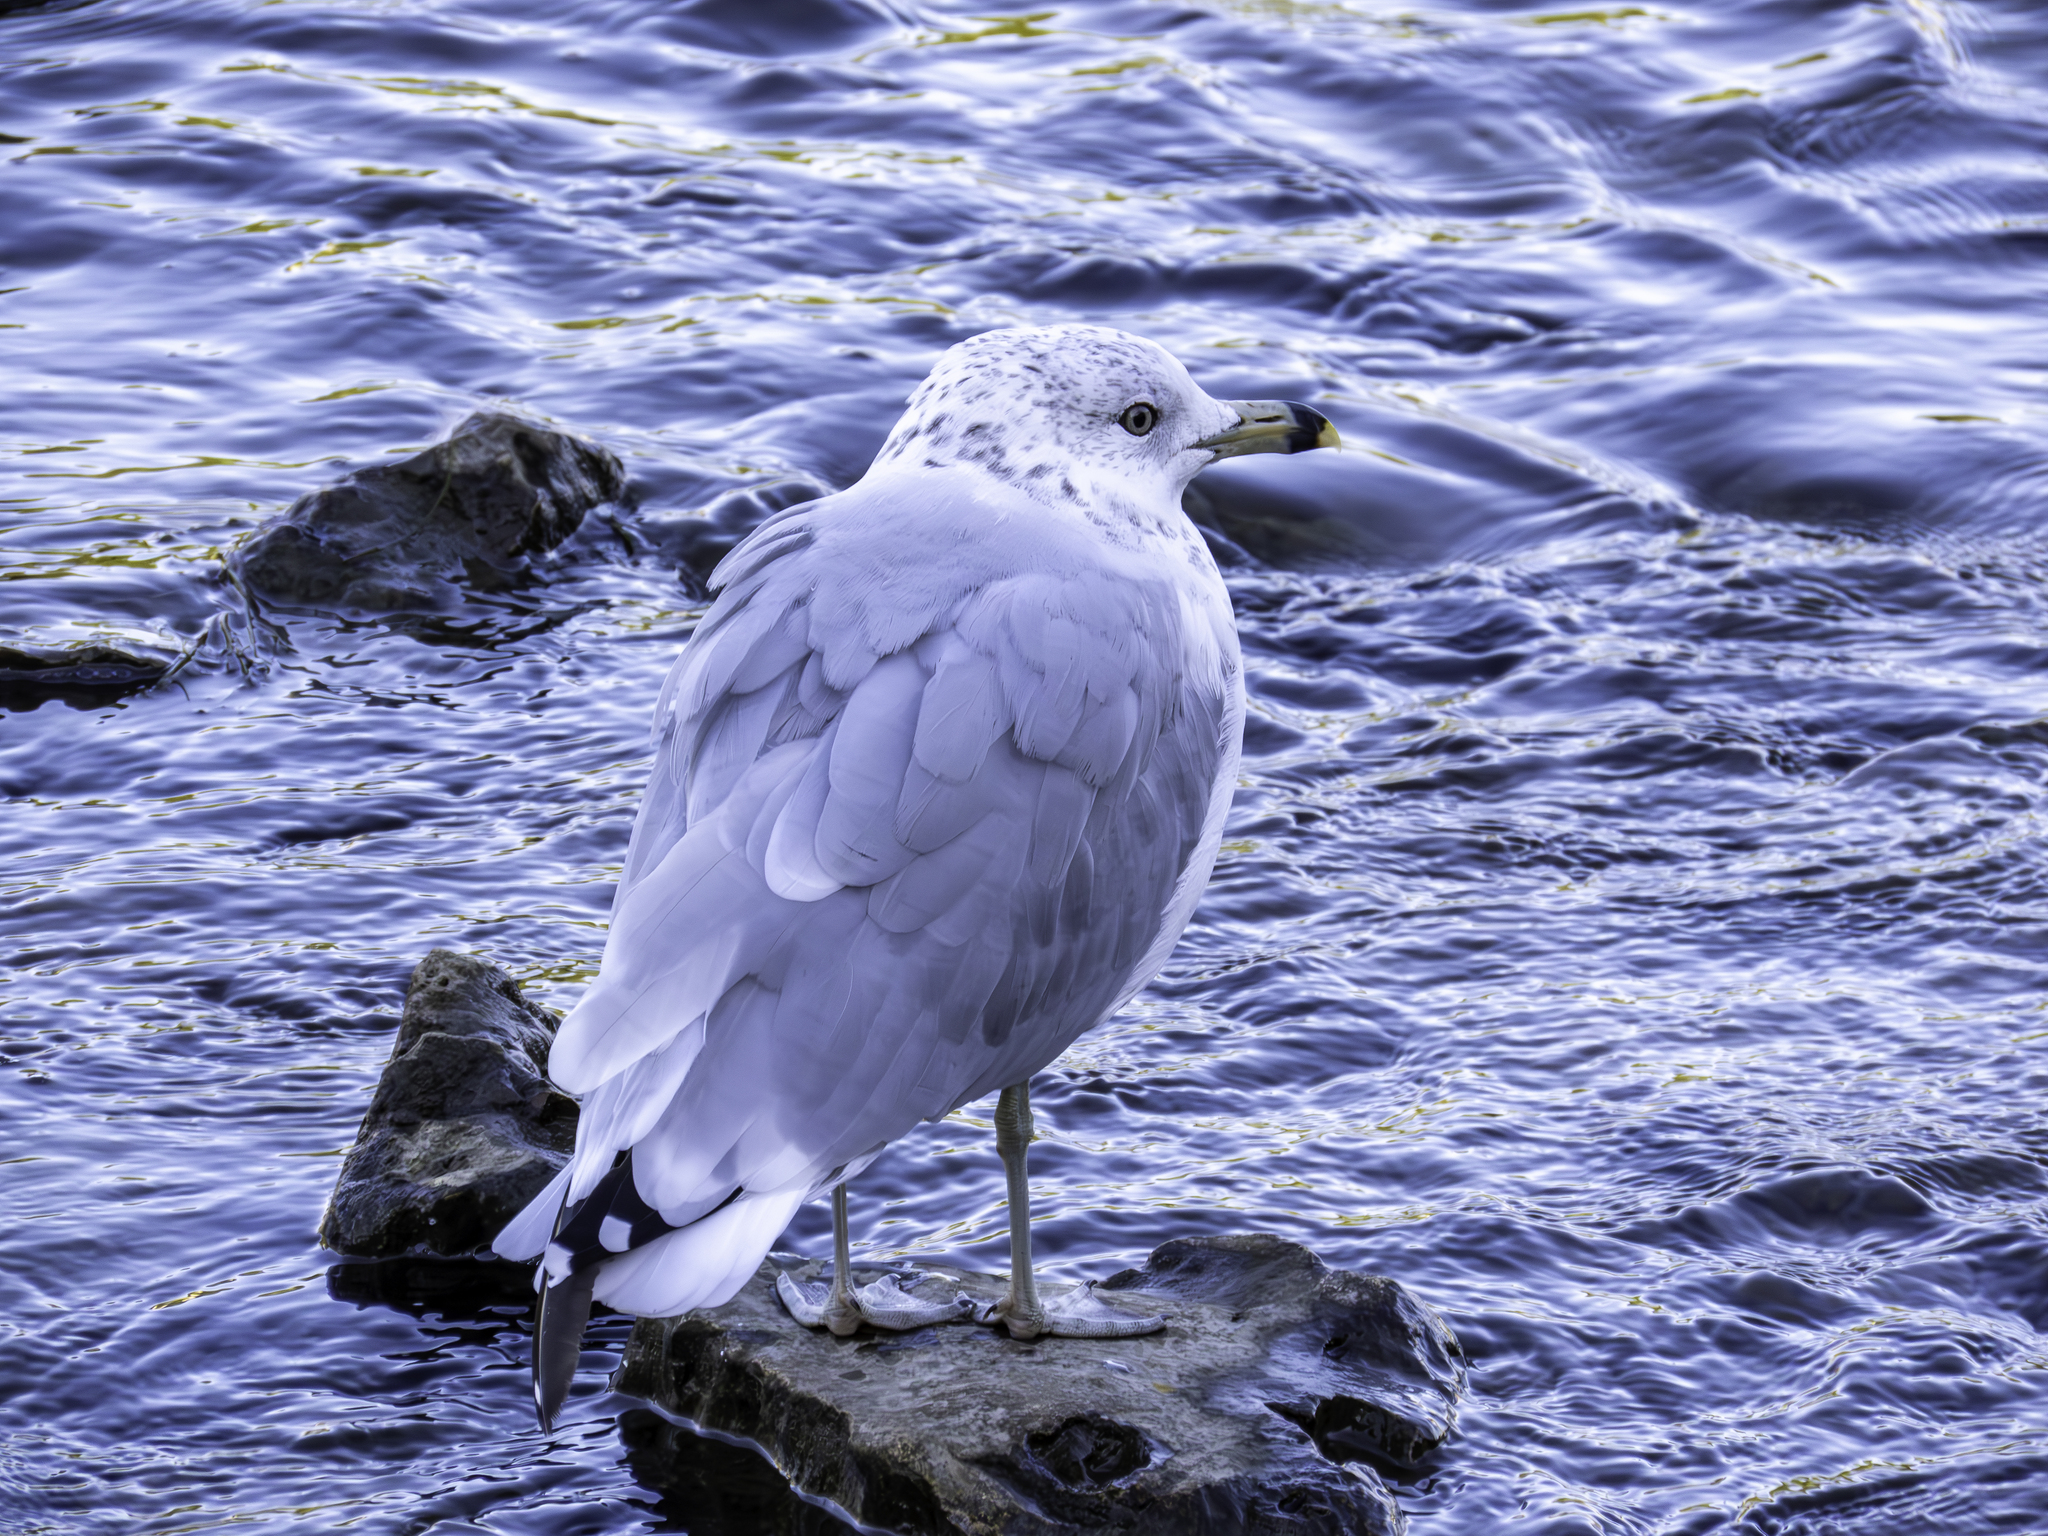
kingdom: Animalia
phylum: Chordata
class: Aves
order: Charadriiformes
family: Laridae
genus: Larus
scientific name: Larus delawarensis
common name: Ring-billed gull
